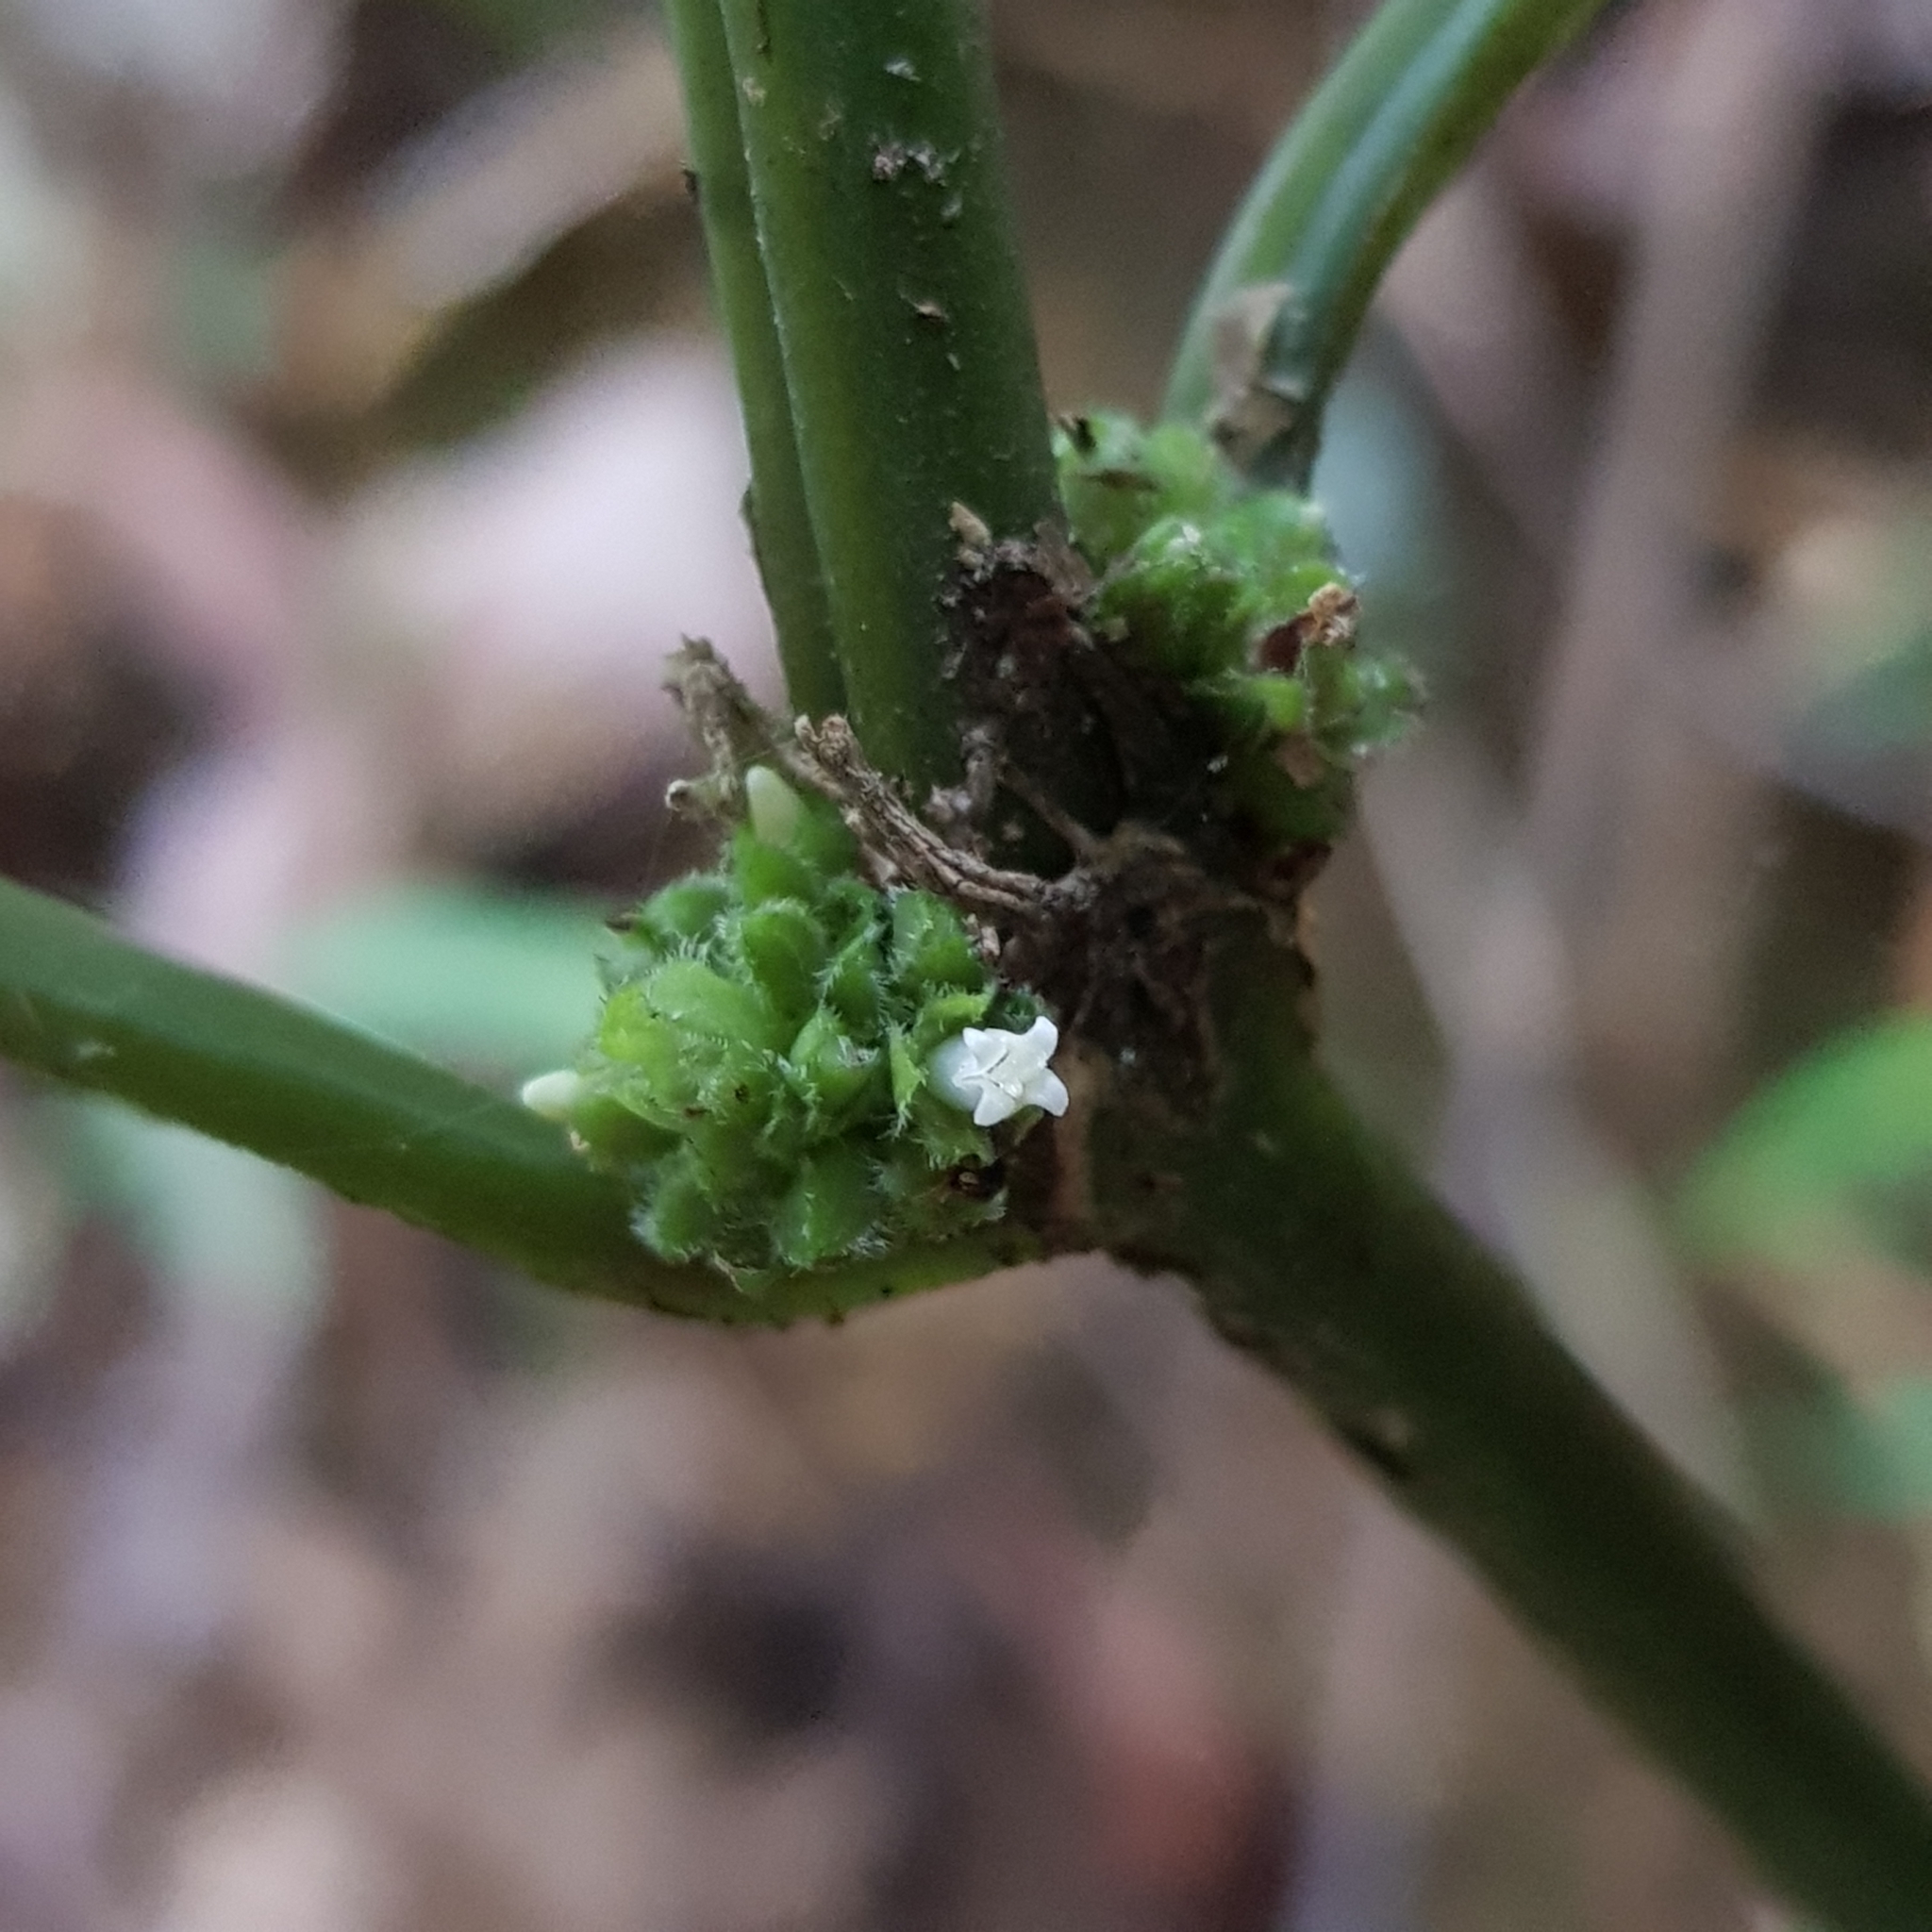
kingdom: Plantae
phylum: Tracheophyta
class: Magnoliopsida
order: Gentianales
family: Rubiaceae
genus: Exallage
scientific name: Exallage cristata
